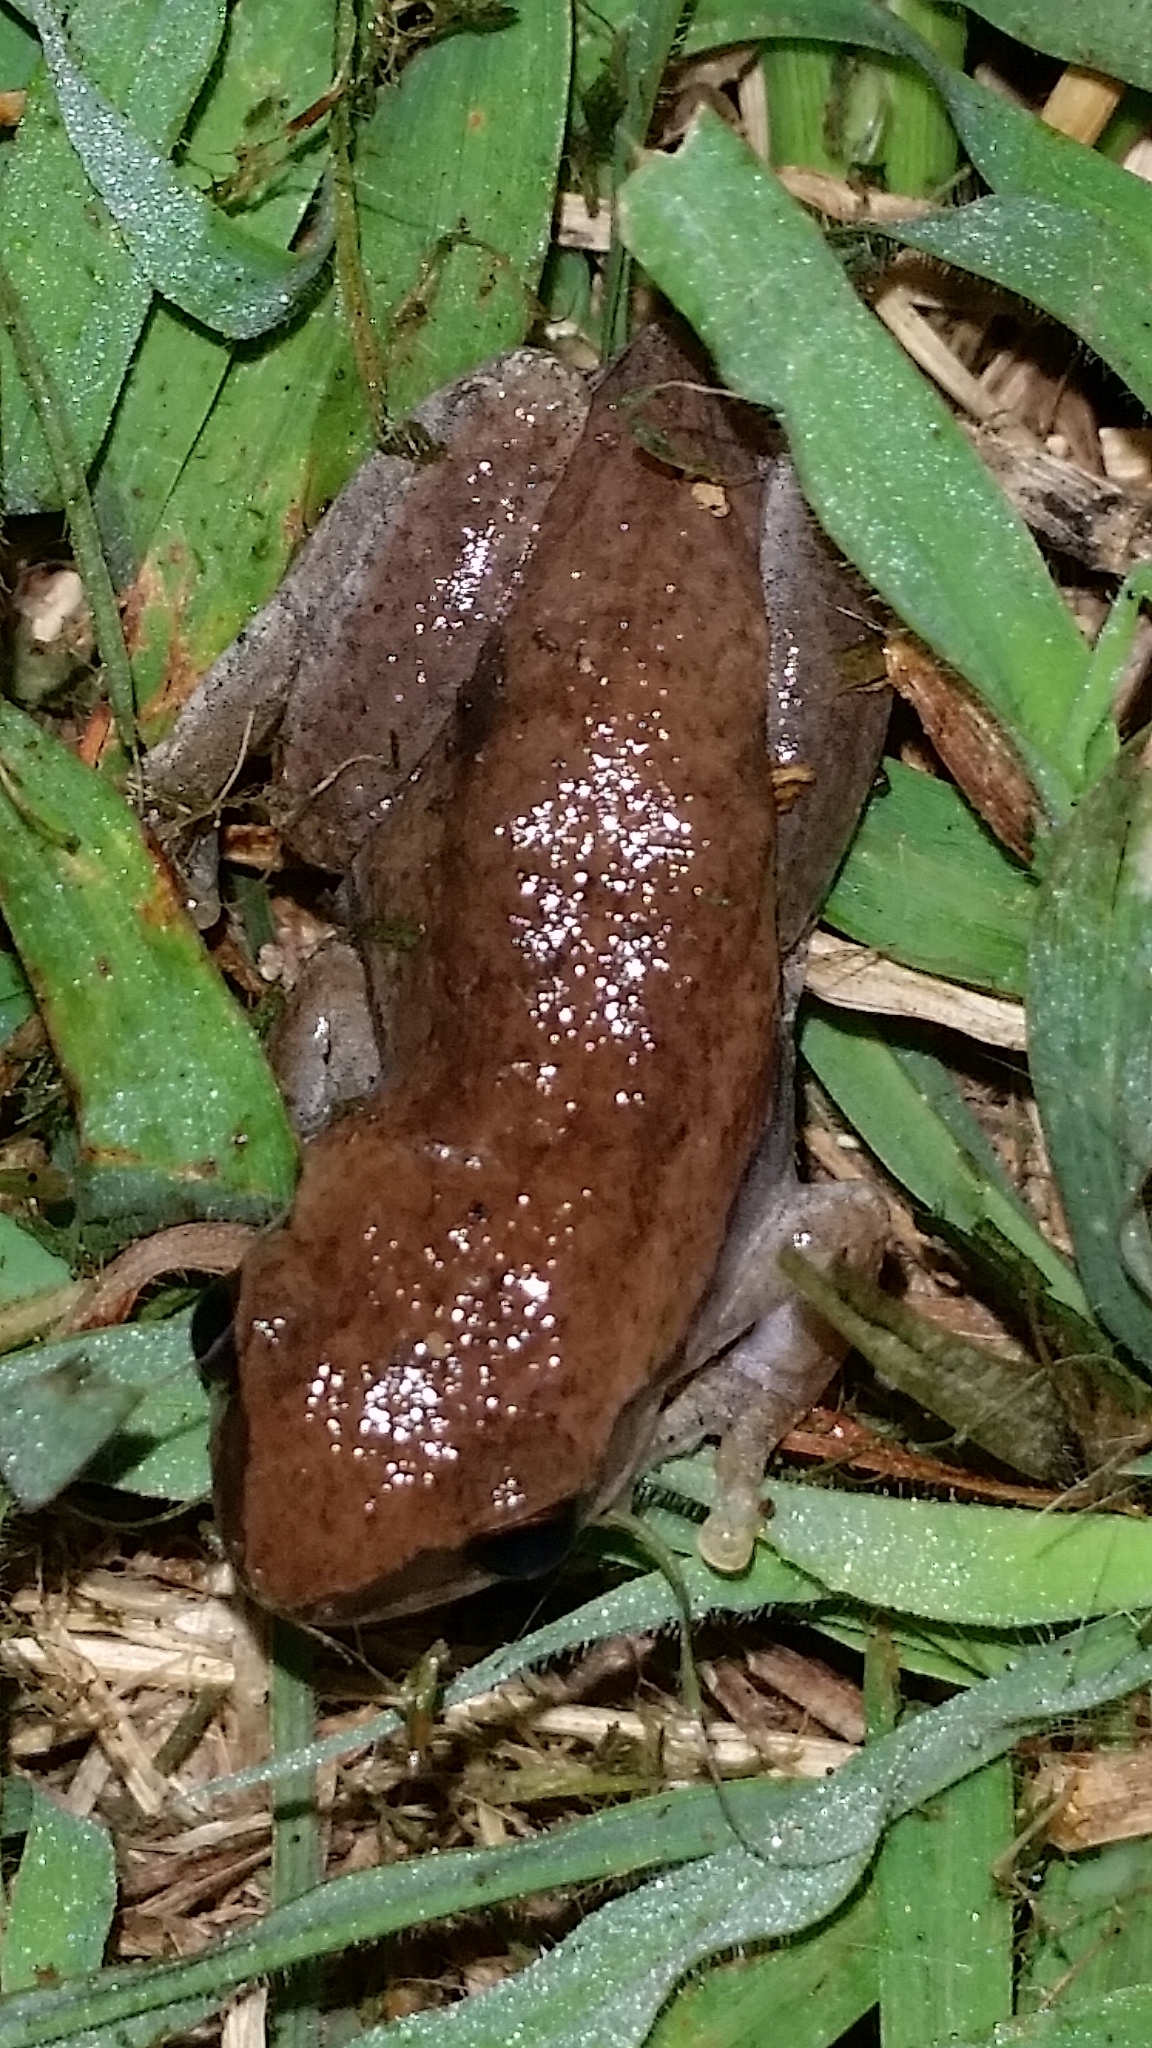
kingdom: Animalia
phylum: Chordata
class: Amphibia
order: Anura
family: Pelodryadidae
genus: Litoria
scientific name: Litoria rubella
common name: Desert tree frog
